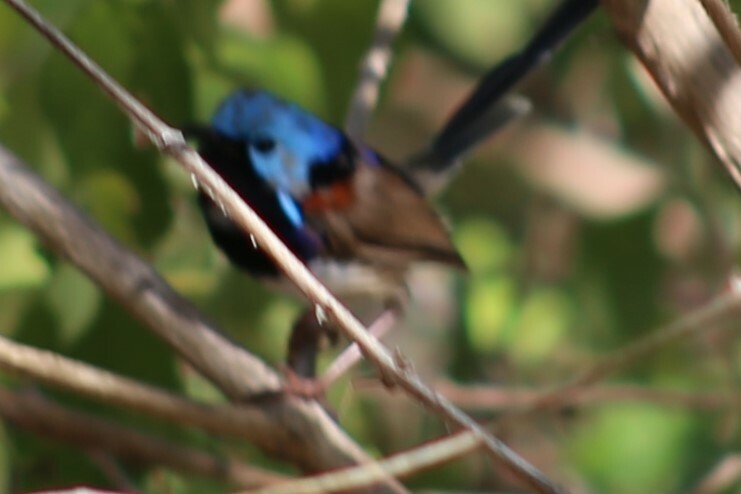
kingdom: Animalia
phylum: Chordata
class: Aves
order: Passeriformes
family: Maluridae
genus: Malurus
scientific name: Malurus lamberti
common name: Variegated fairywren
